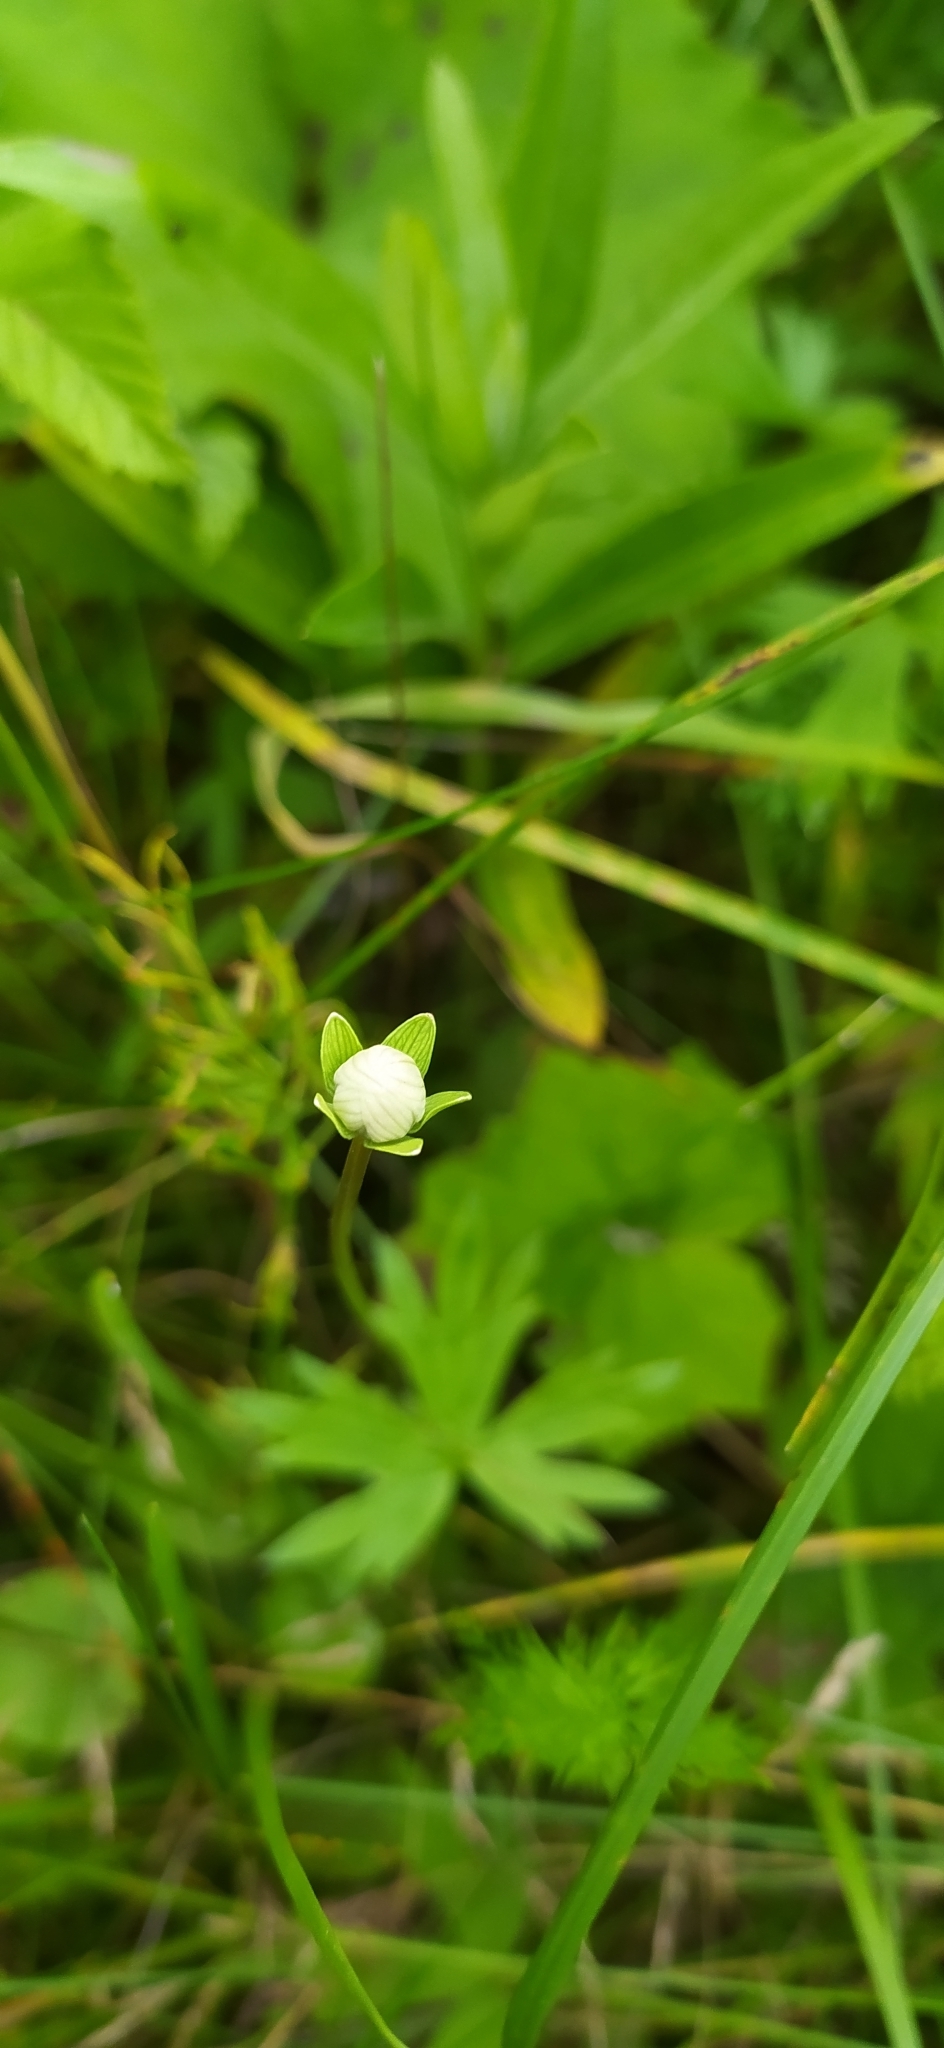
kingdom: Plantae
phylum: Tracheophyta
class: Magnoliopsida
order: Celastrales
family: Parnassiaceae
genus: Parnassia
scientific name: Parnassia palustris
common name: Grass-of-parnassus
